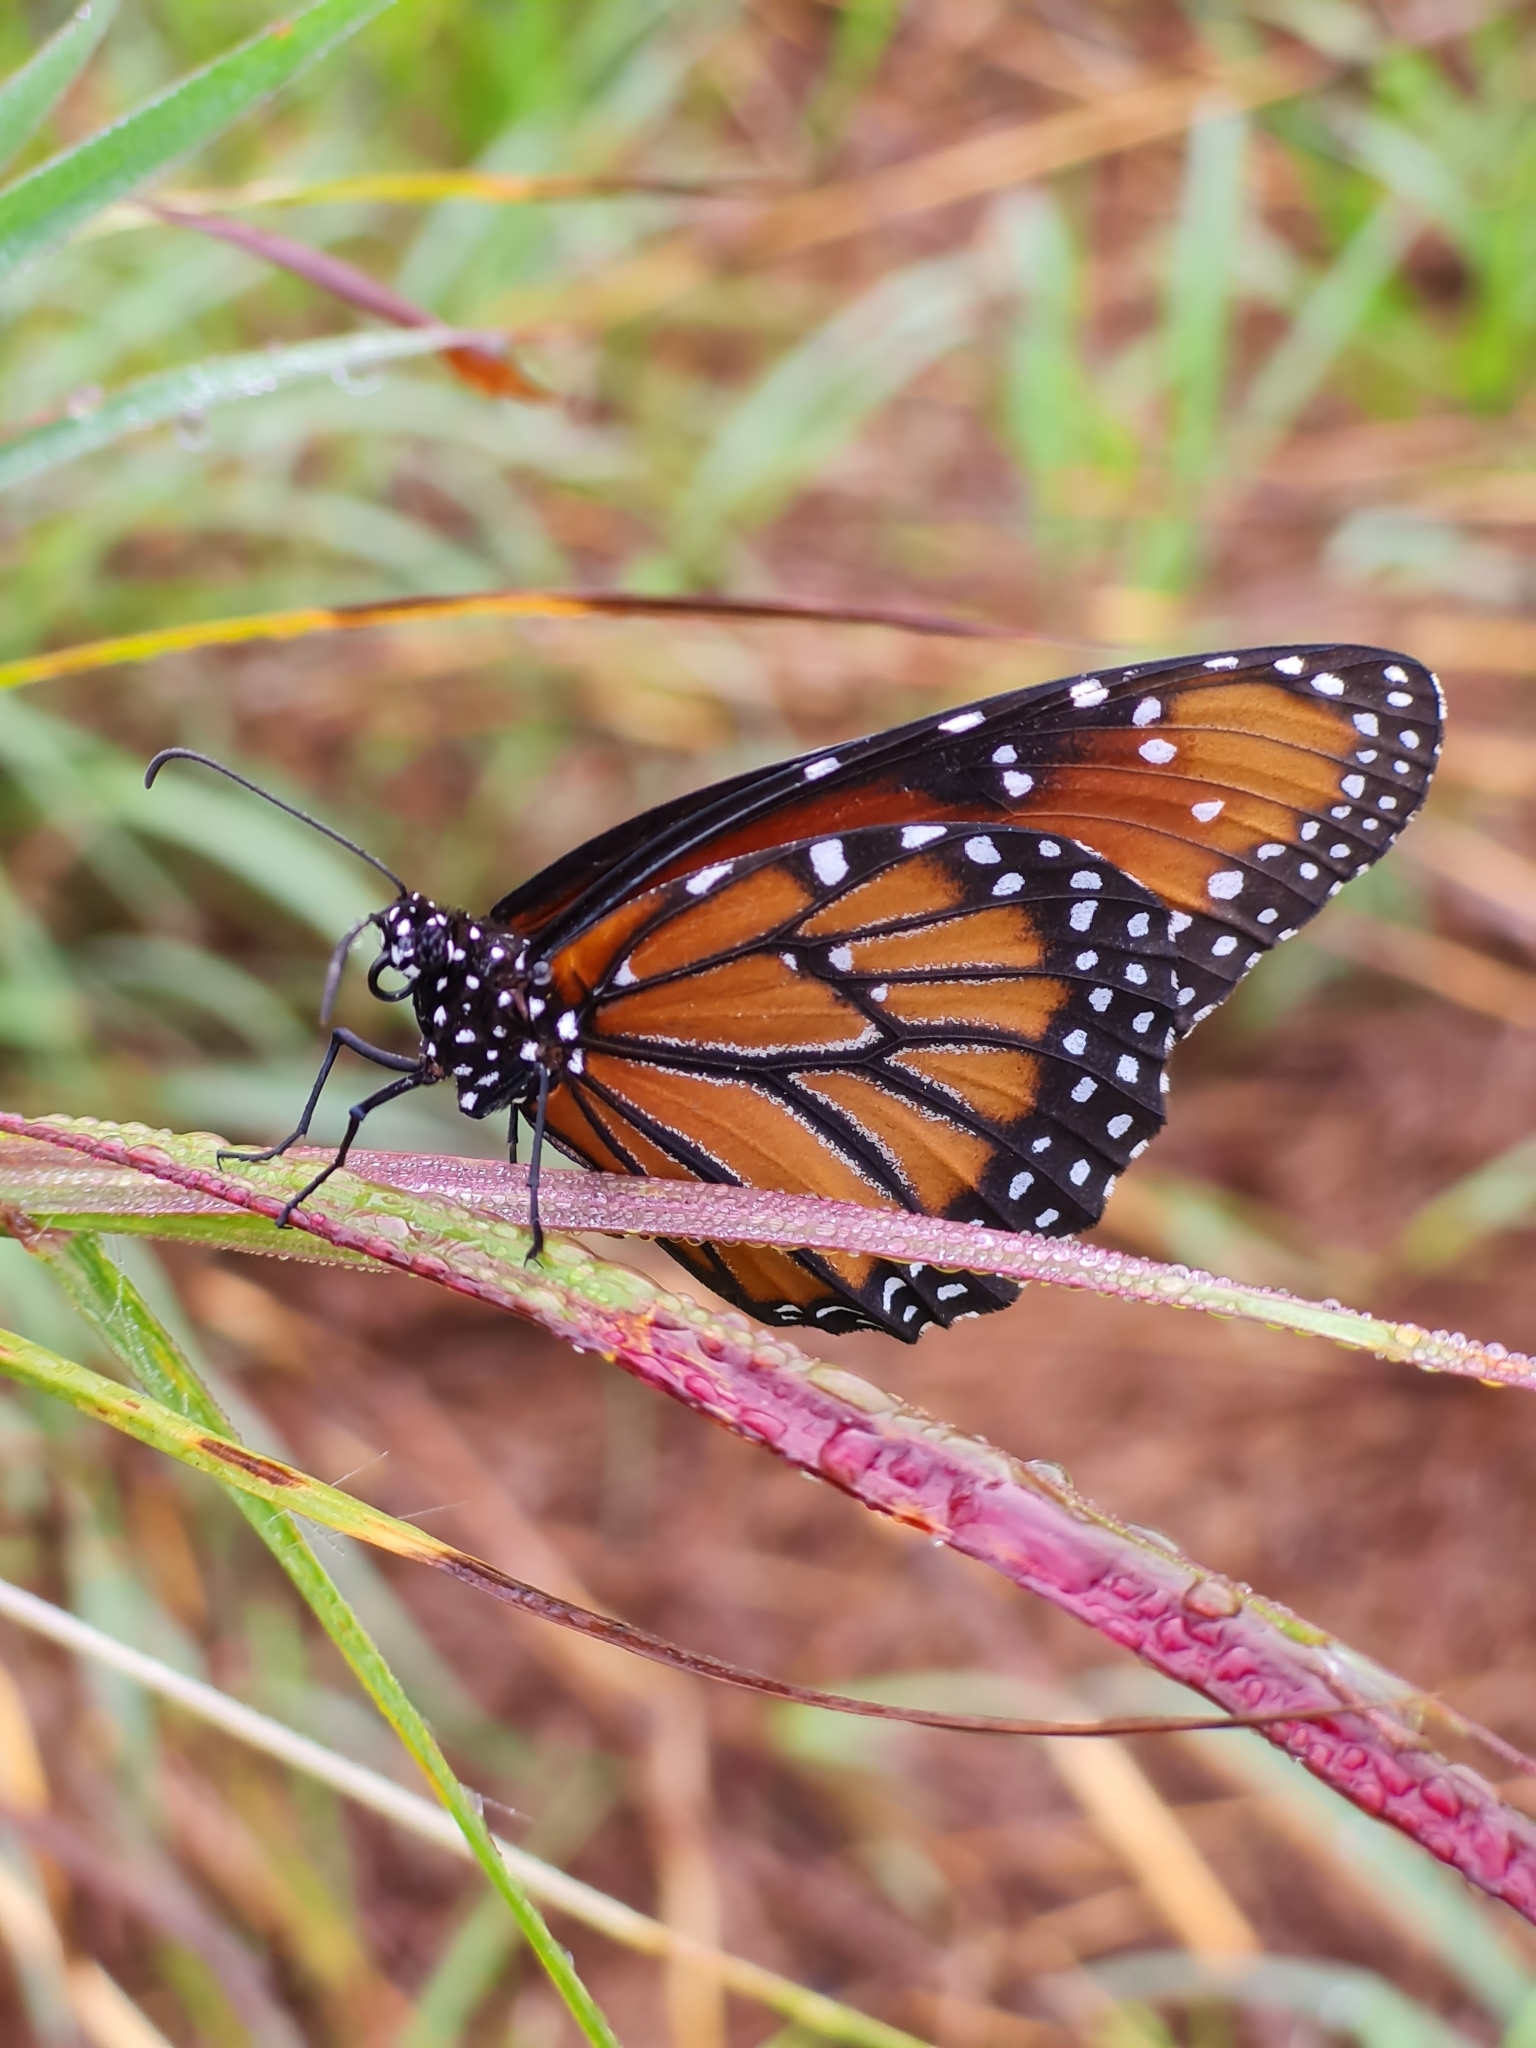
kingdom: Animalia
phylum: Arthropoda
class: Insecta
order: Lepidoptera
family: Nymphalidae
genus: Danaus
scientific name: Danaus gilippus
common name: Queen
